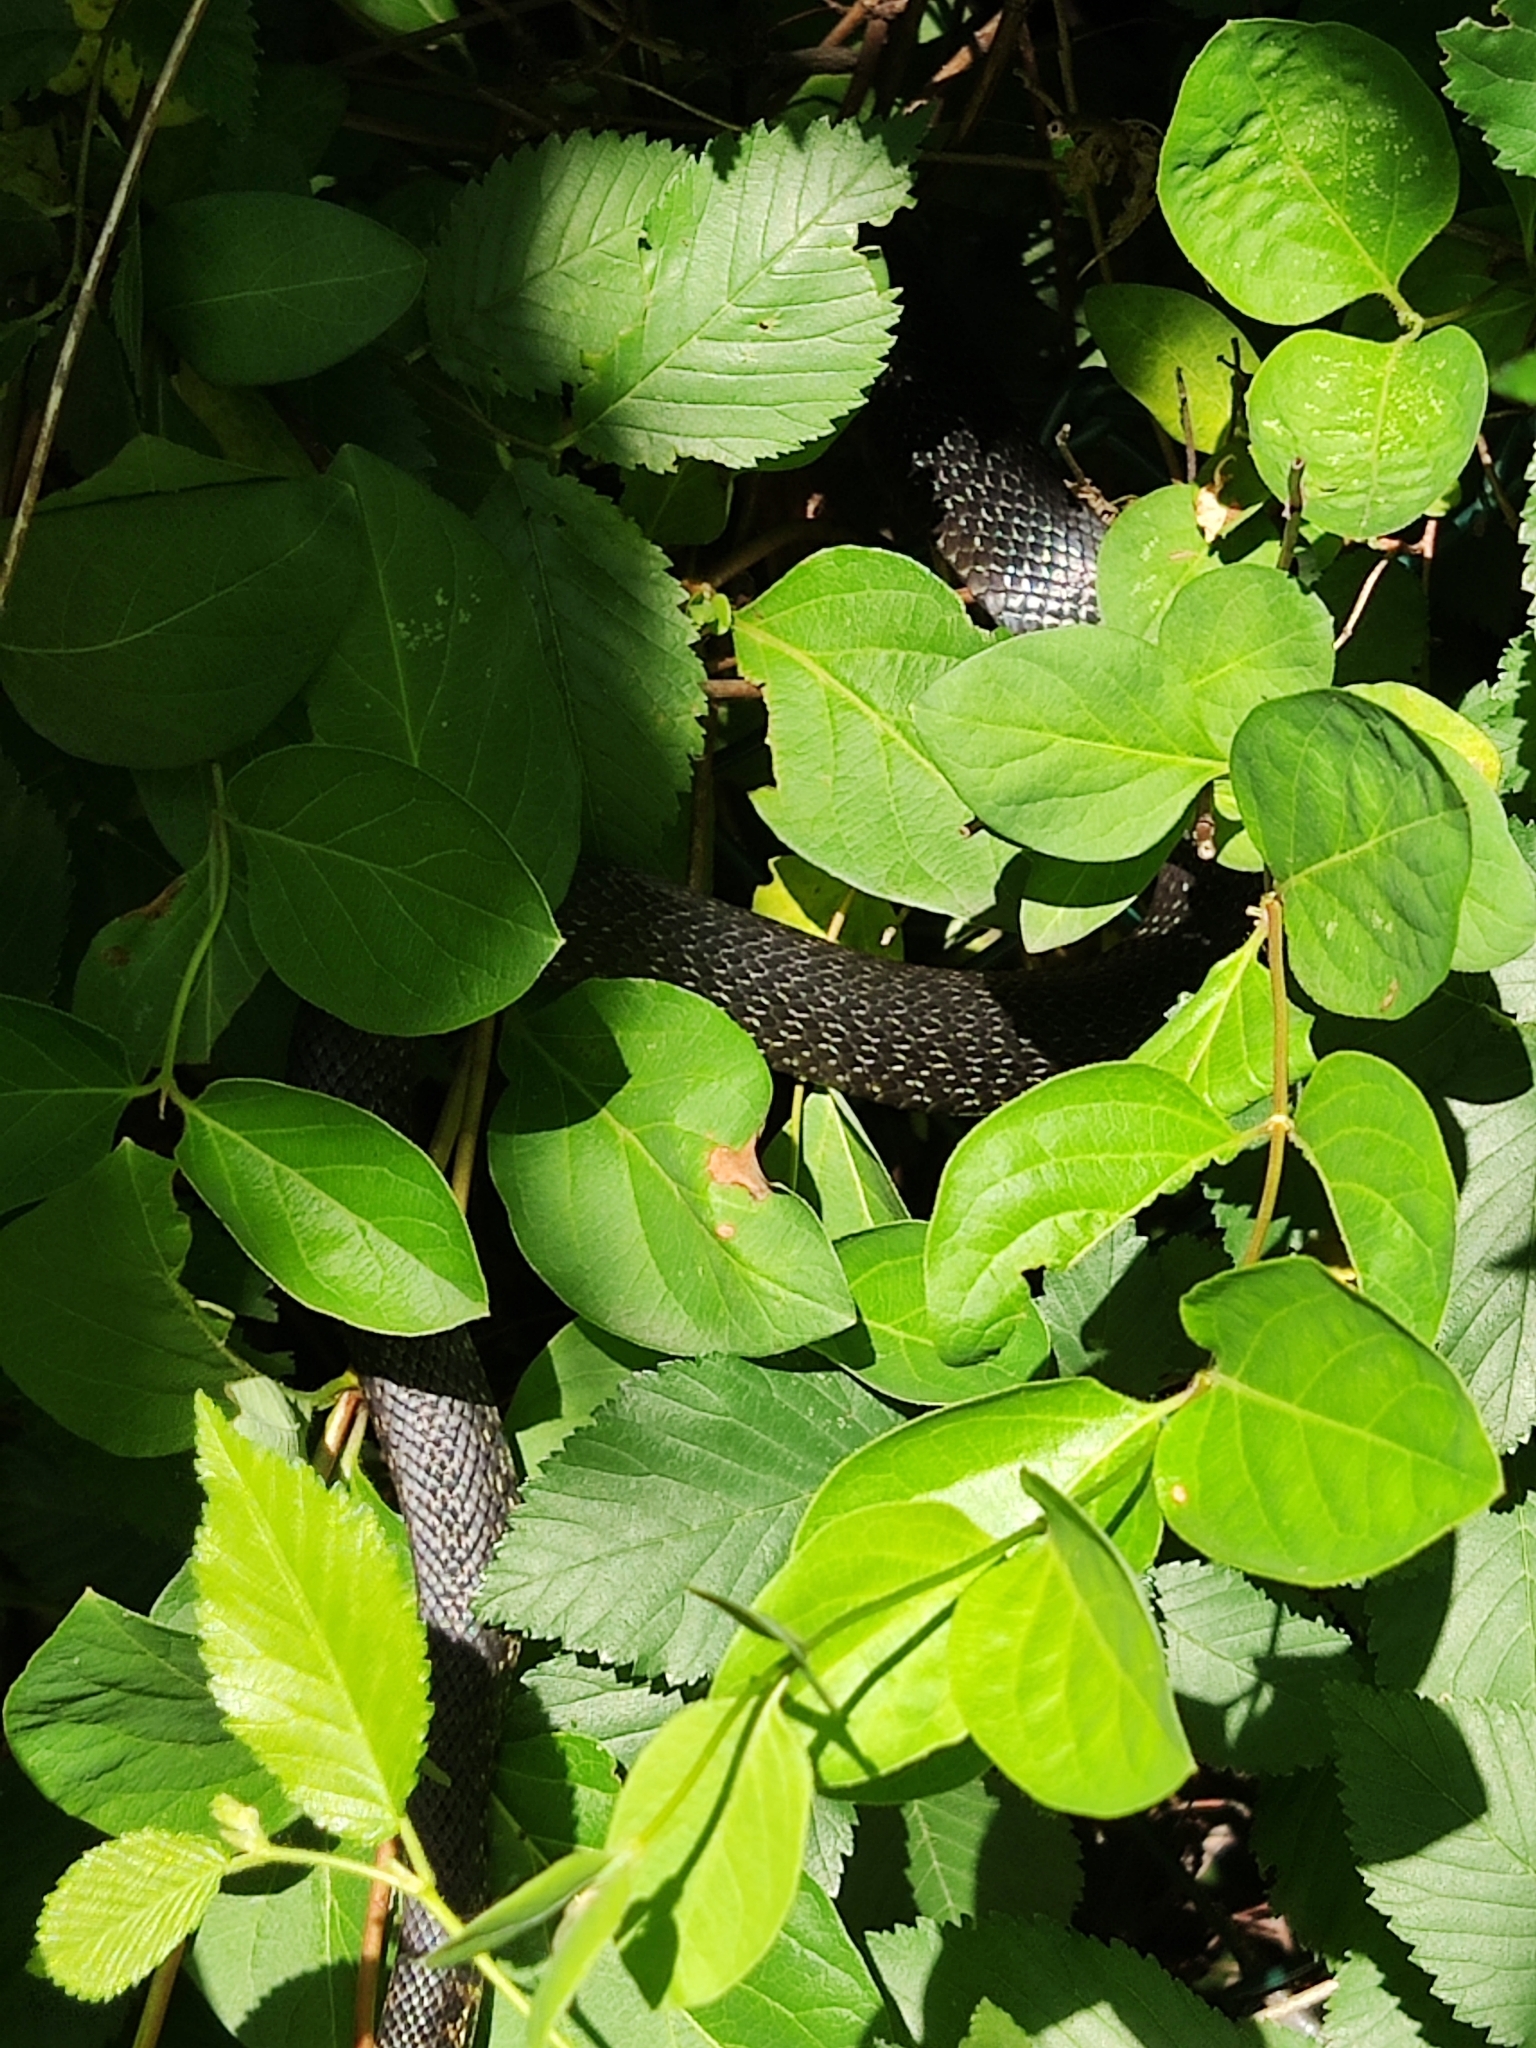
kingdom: Animalia
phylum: Chordata
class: Squamata
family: Colubridae
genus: Hierophis
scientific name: Hierophis viridiflavus
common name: Green whip snake
